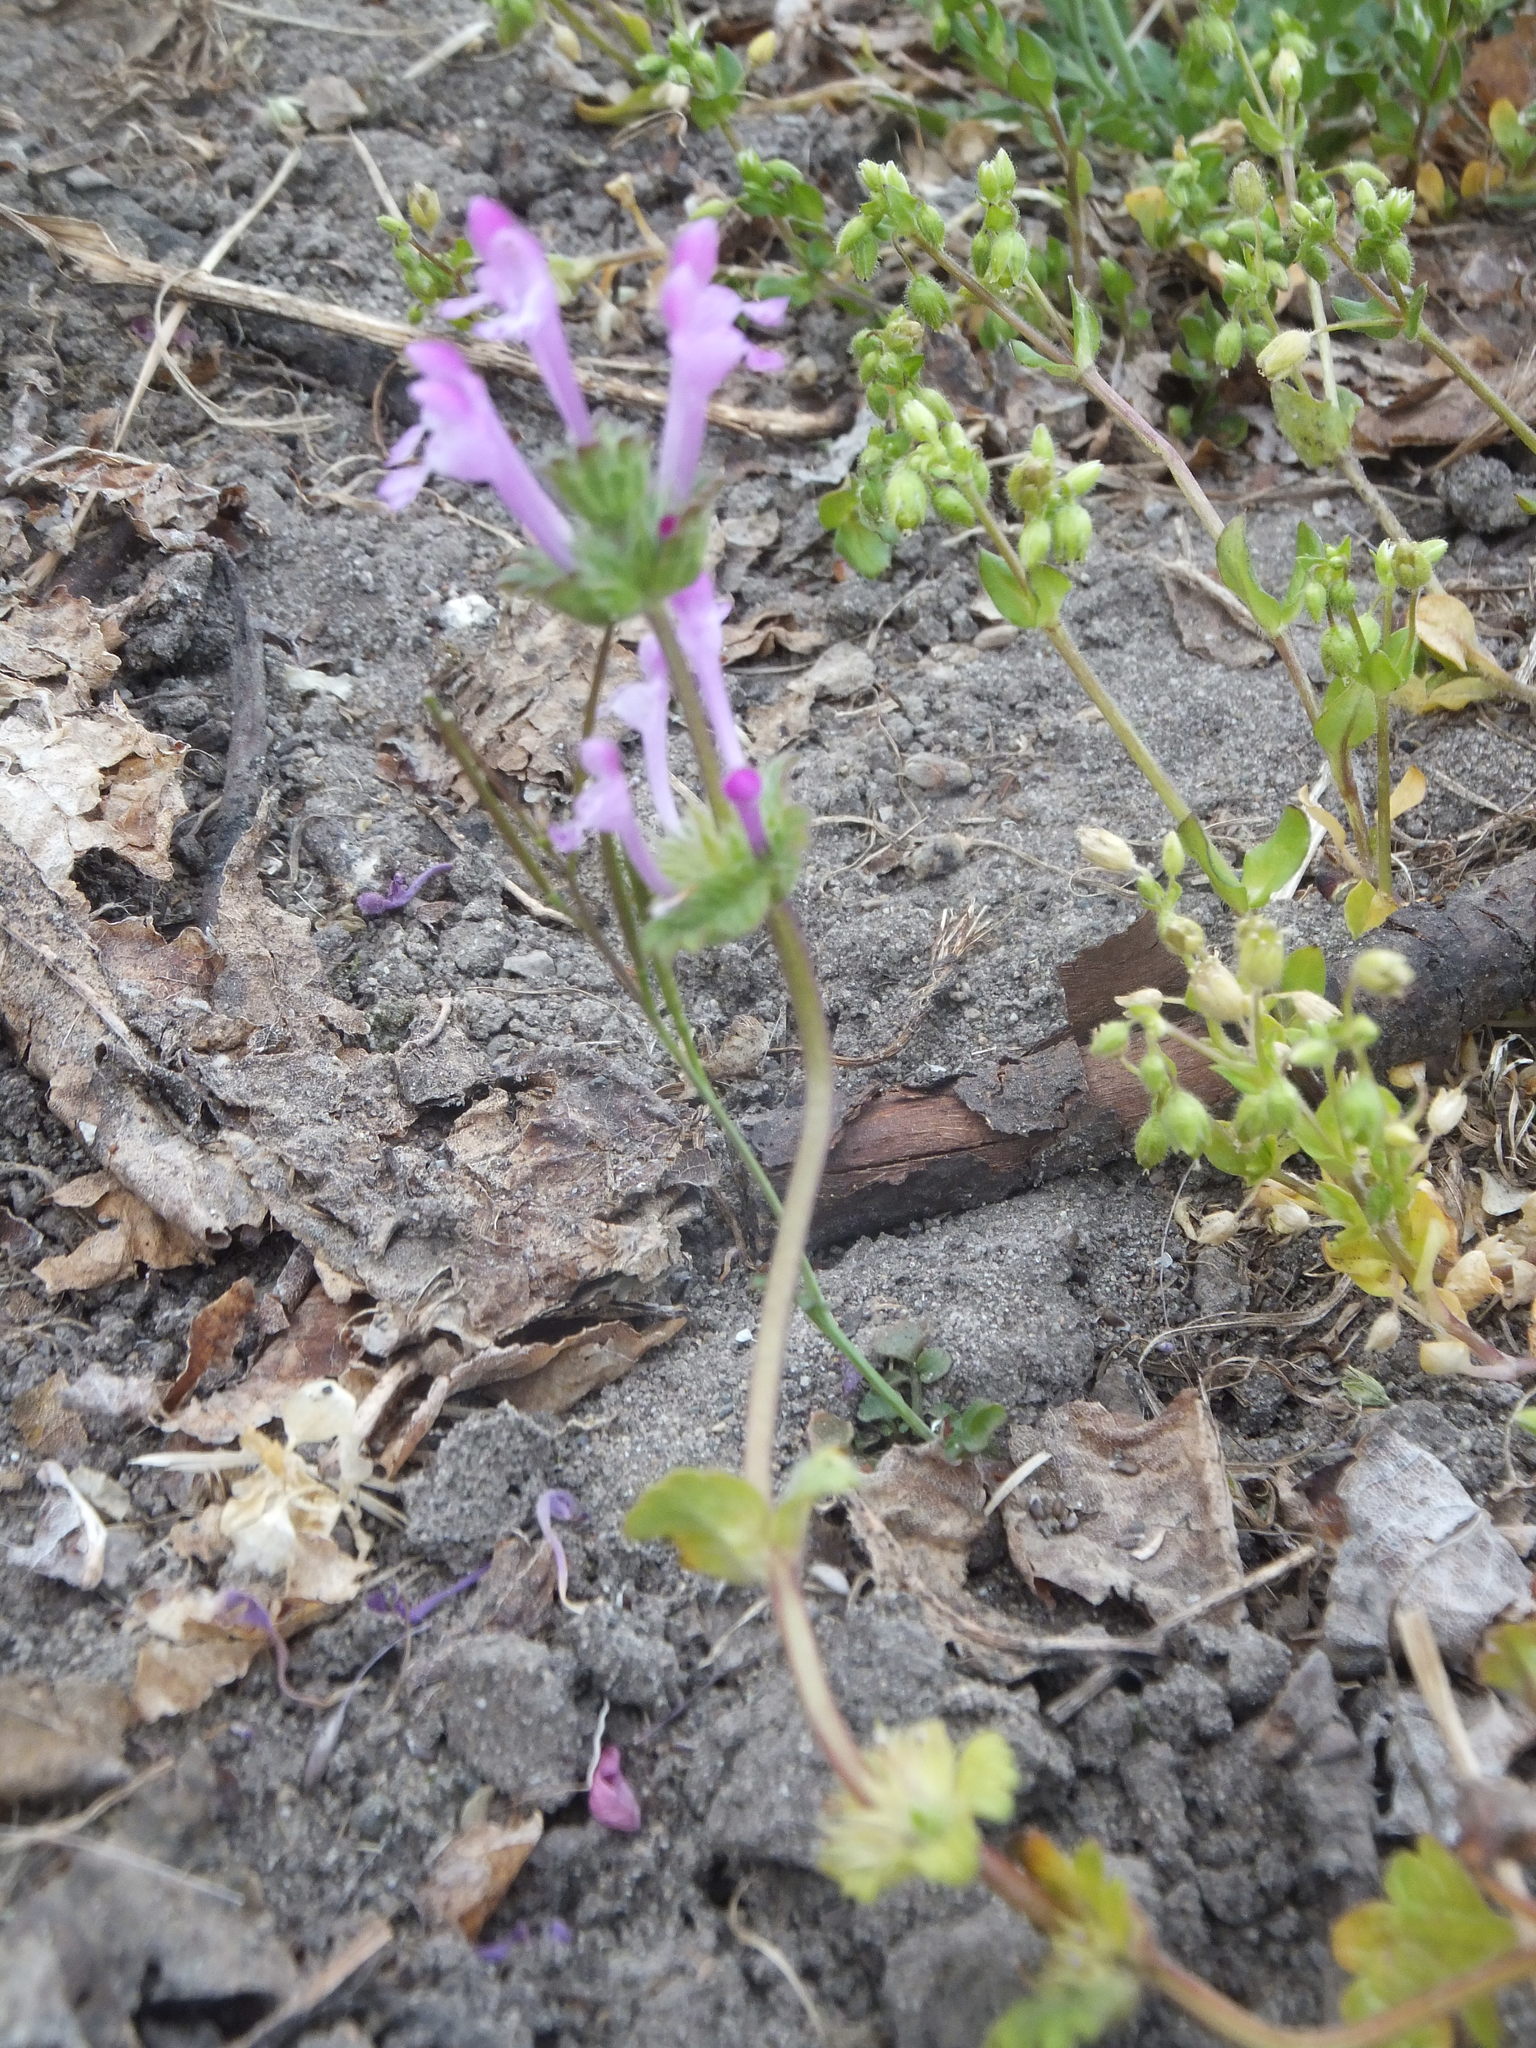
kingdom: Plantae
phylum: Tracheophyta
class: Magnoliopsida
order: Lamiales
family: Lamiaceae
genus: Lamium
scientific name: Lamium amplexicaule
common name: Henbit dead-nettle
